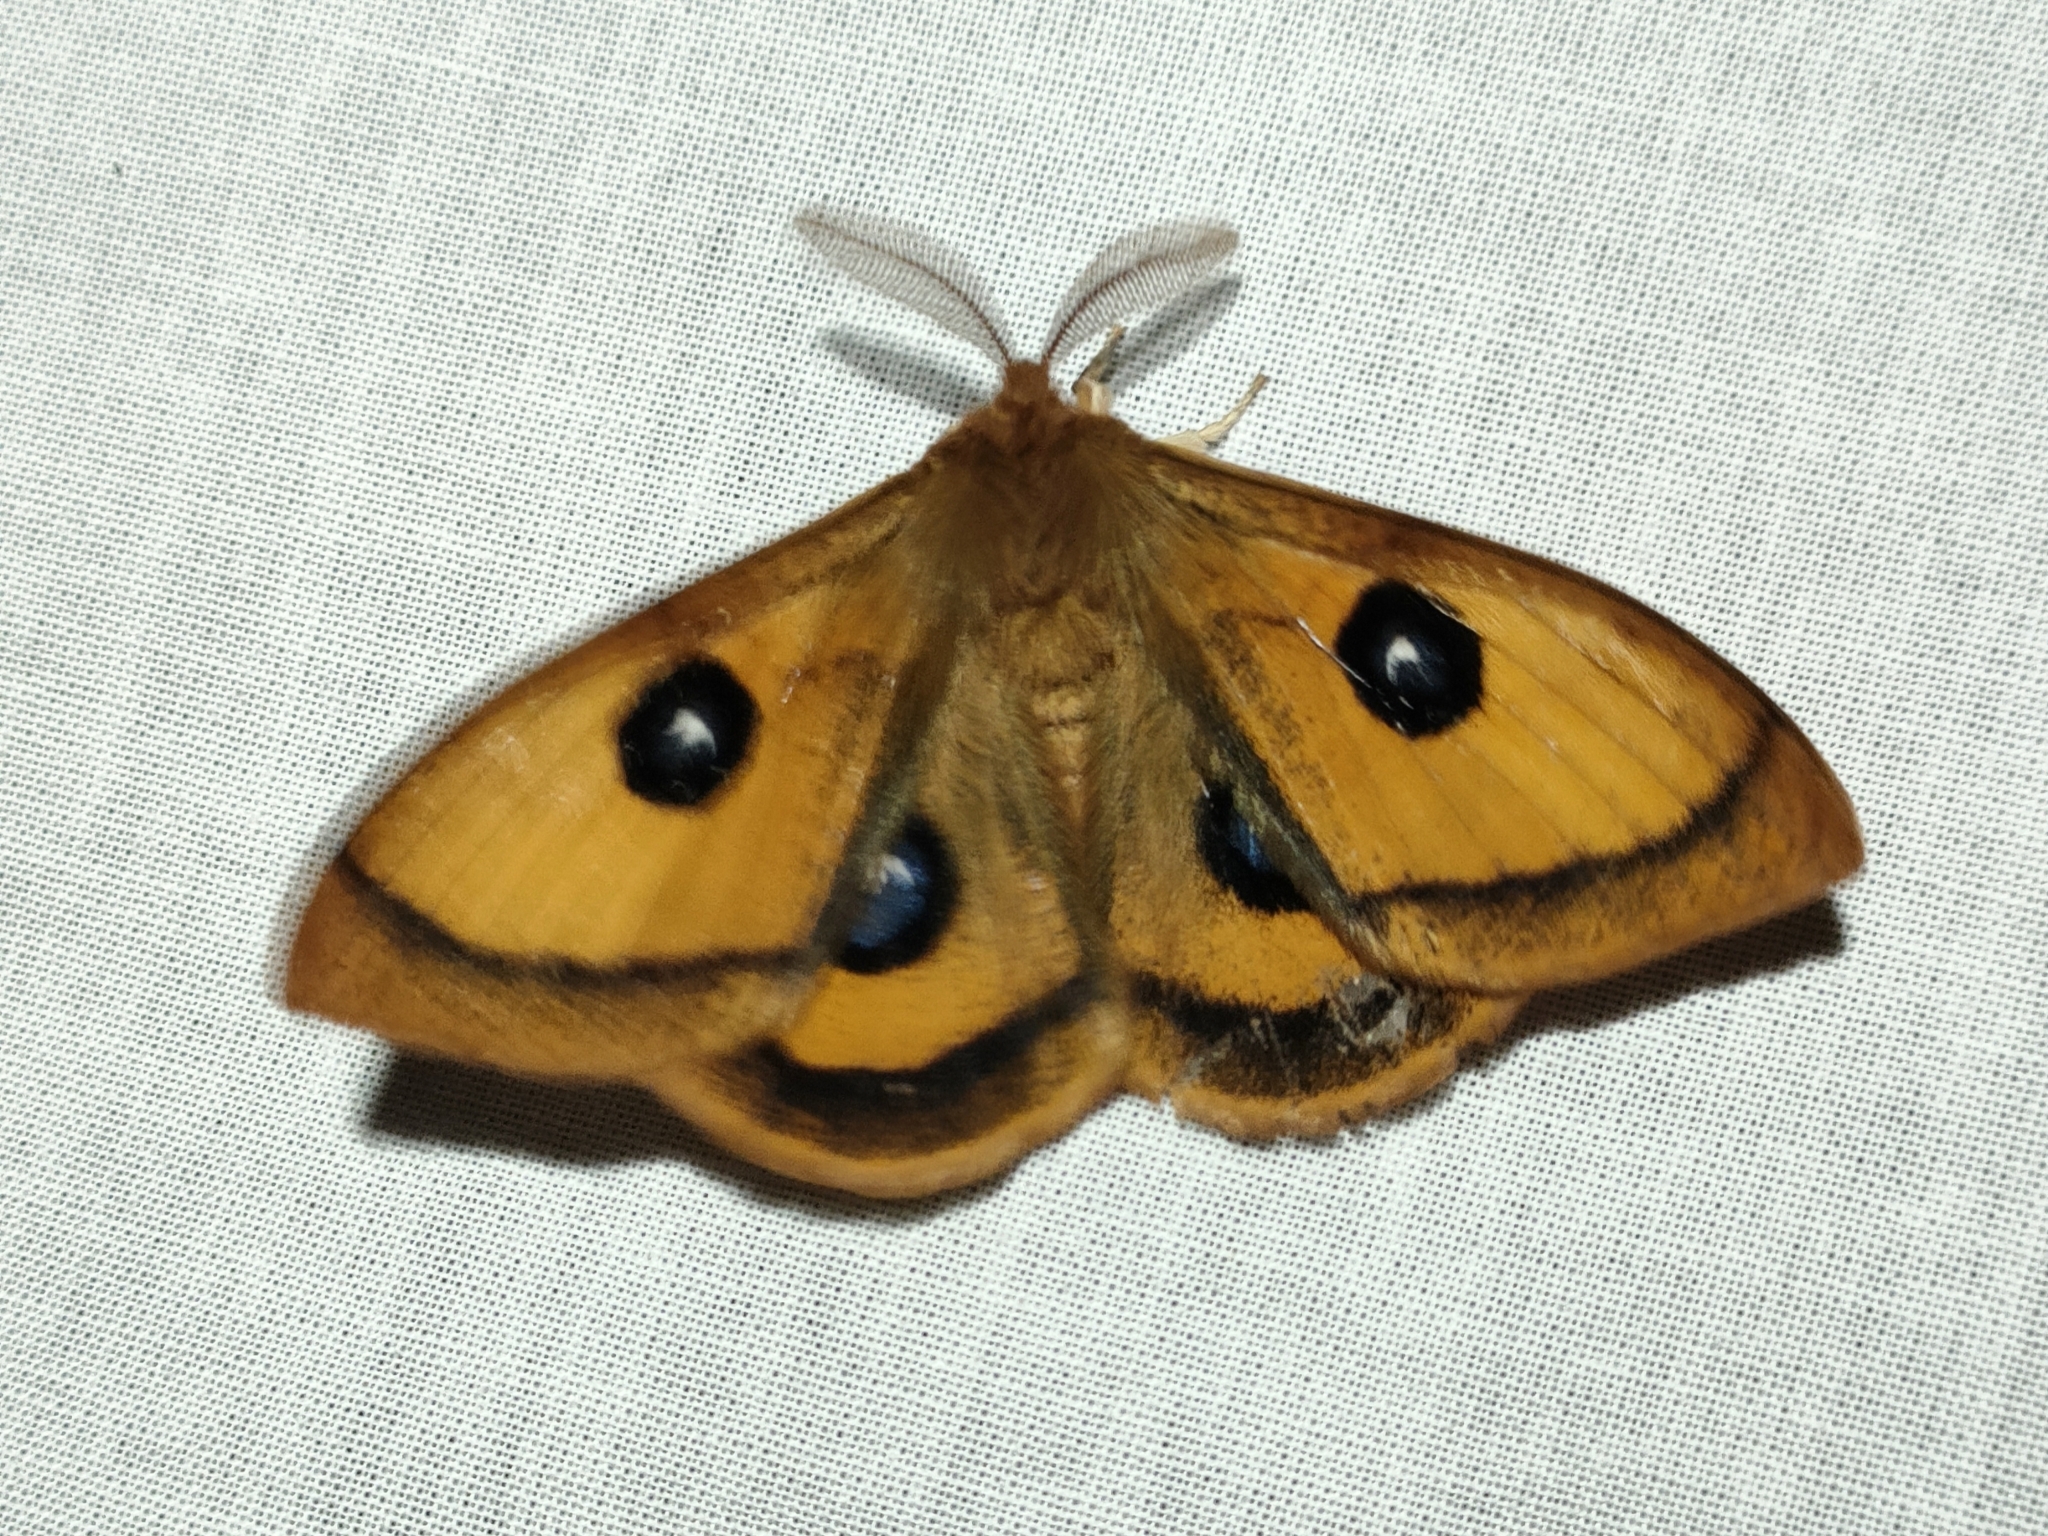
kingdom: Animalia
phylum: Arthropoda
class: Insecta
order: Lepidoptera
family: Saturniidae
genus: Aglia
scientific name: Aglia tau
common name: Tau emperor
